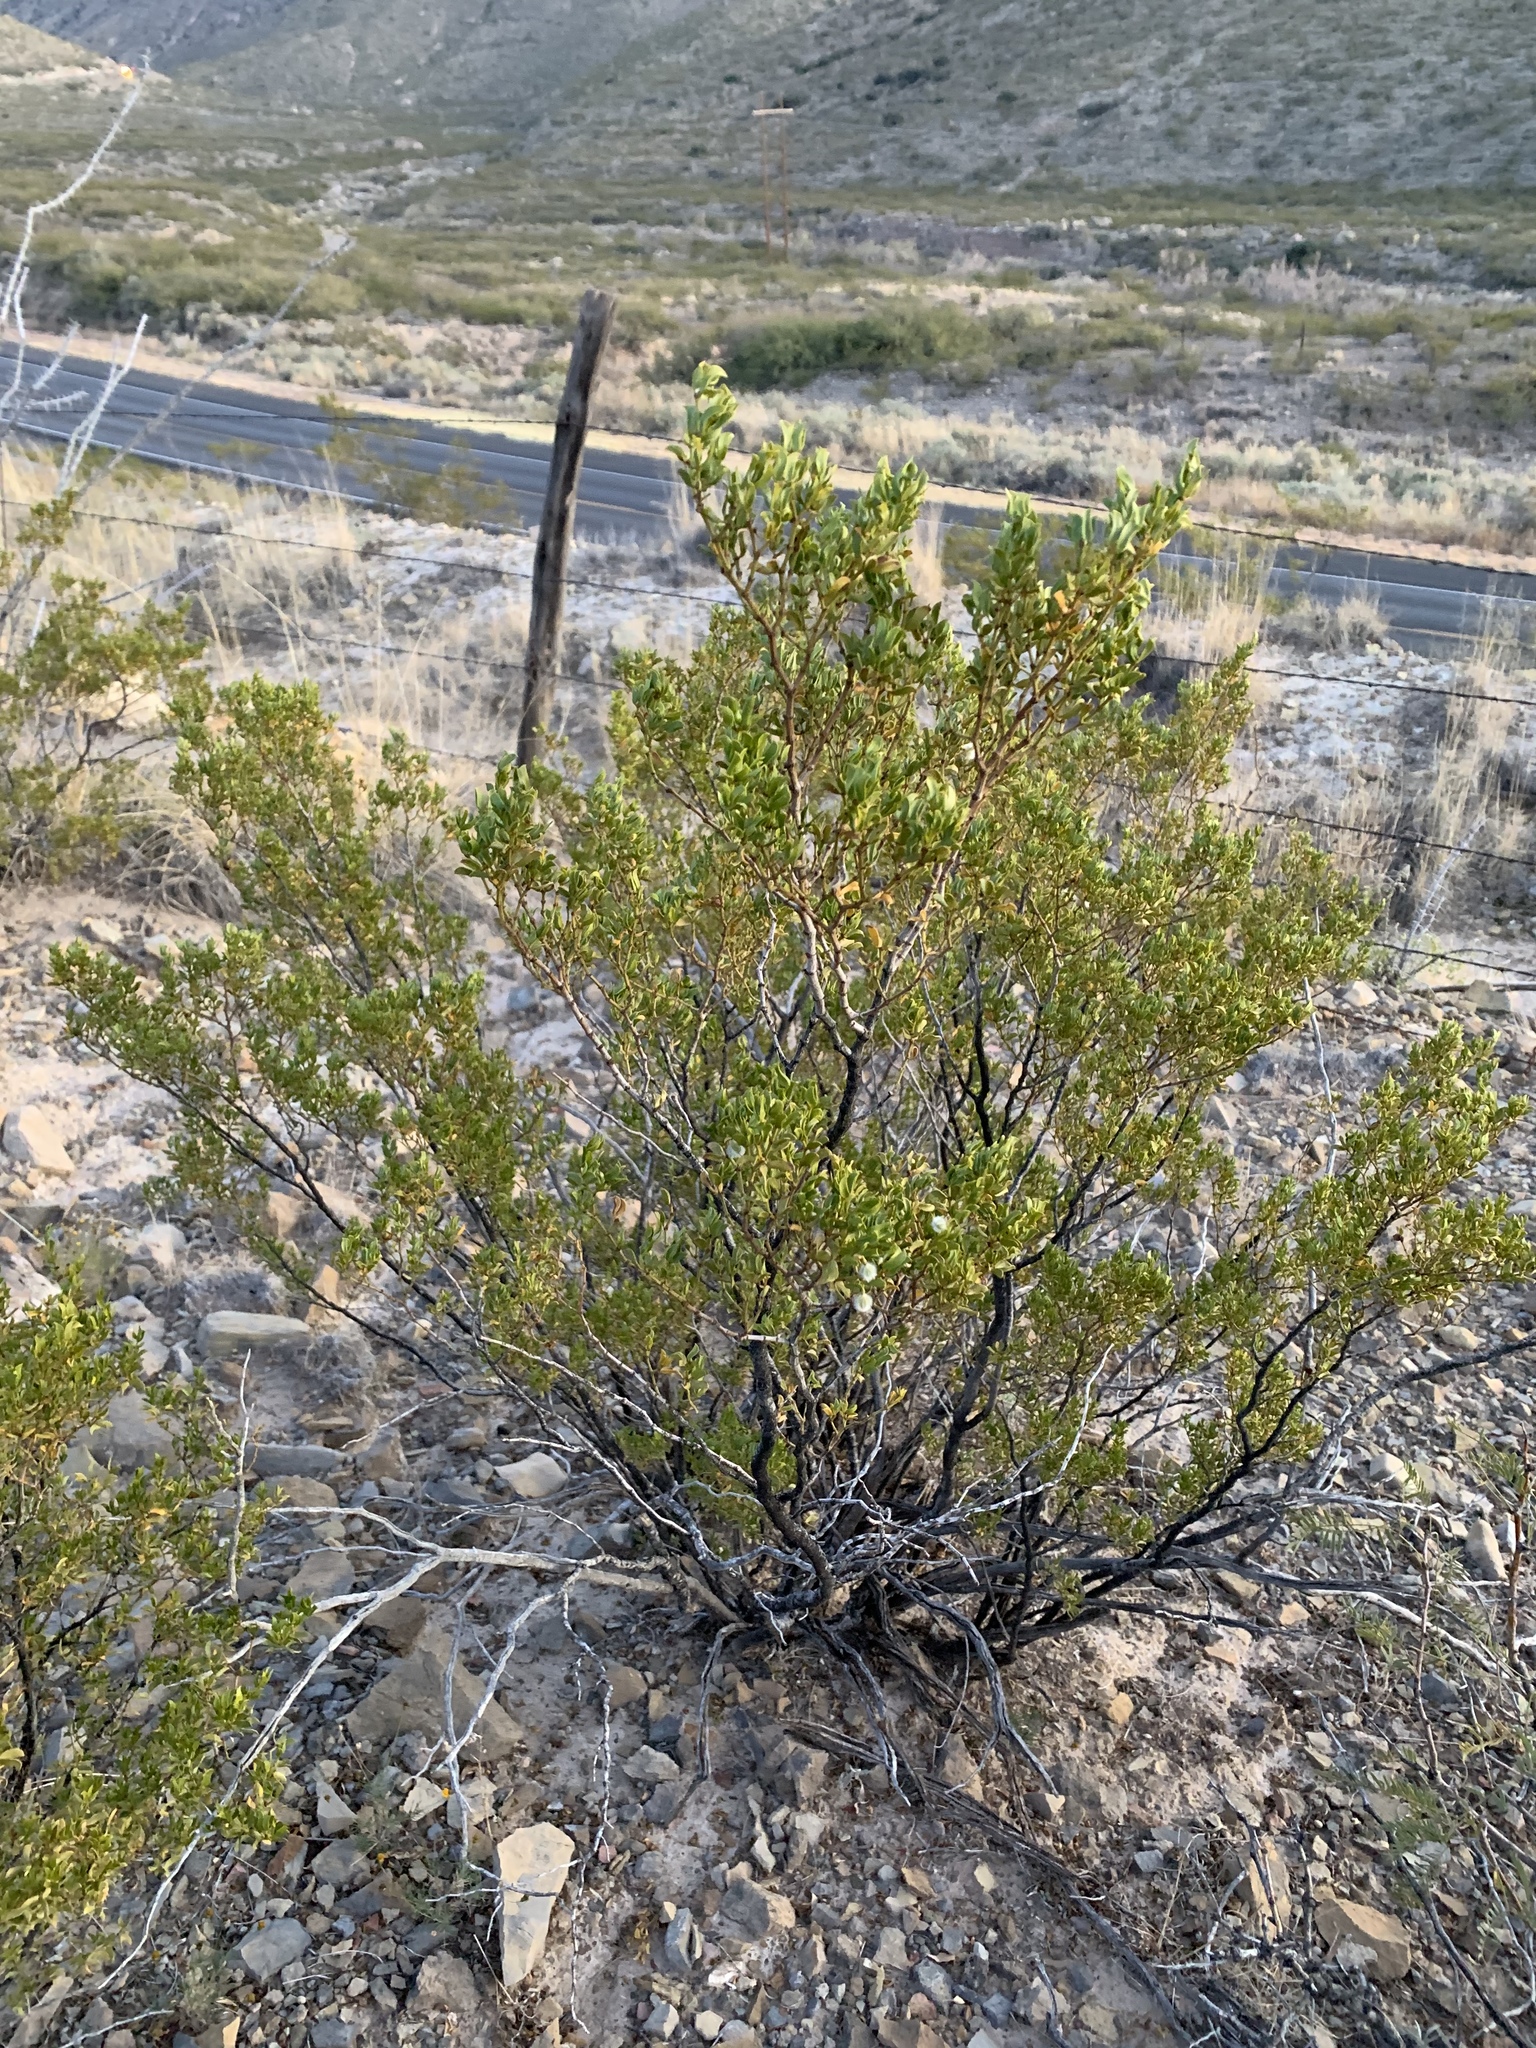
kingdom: Plantae
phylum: Tracheophyta
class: Magnoliopsida
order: Zygophyllales
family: Zygophyllaceae
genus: Larrea
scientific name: Larrea tridentata
